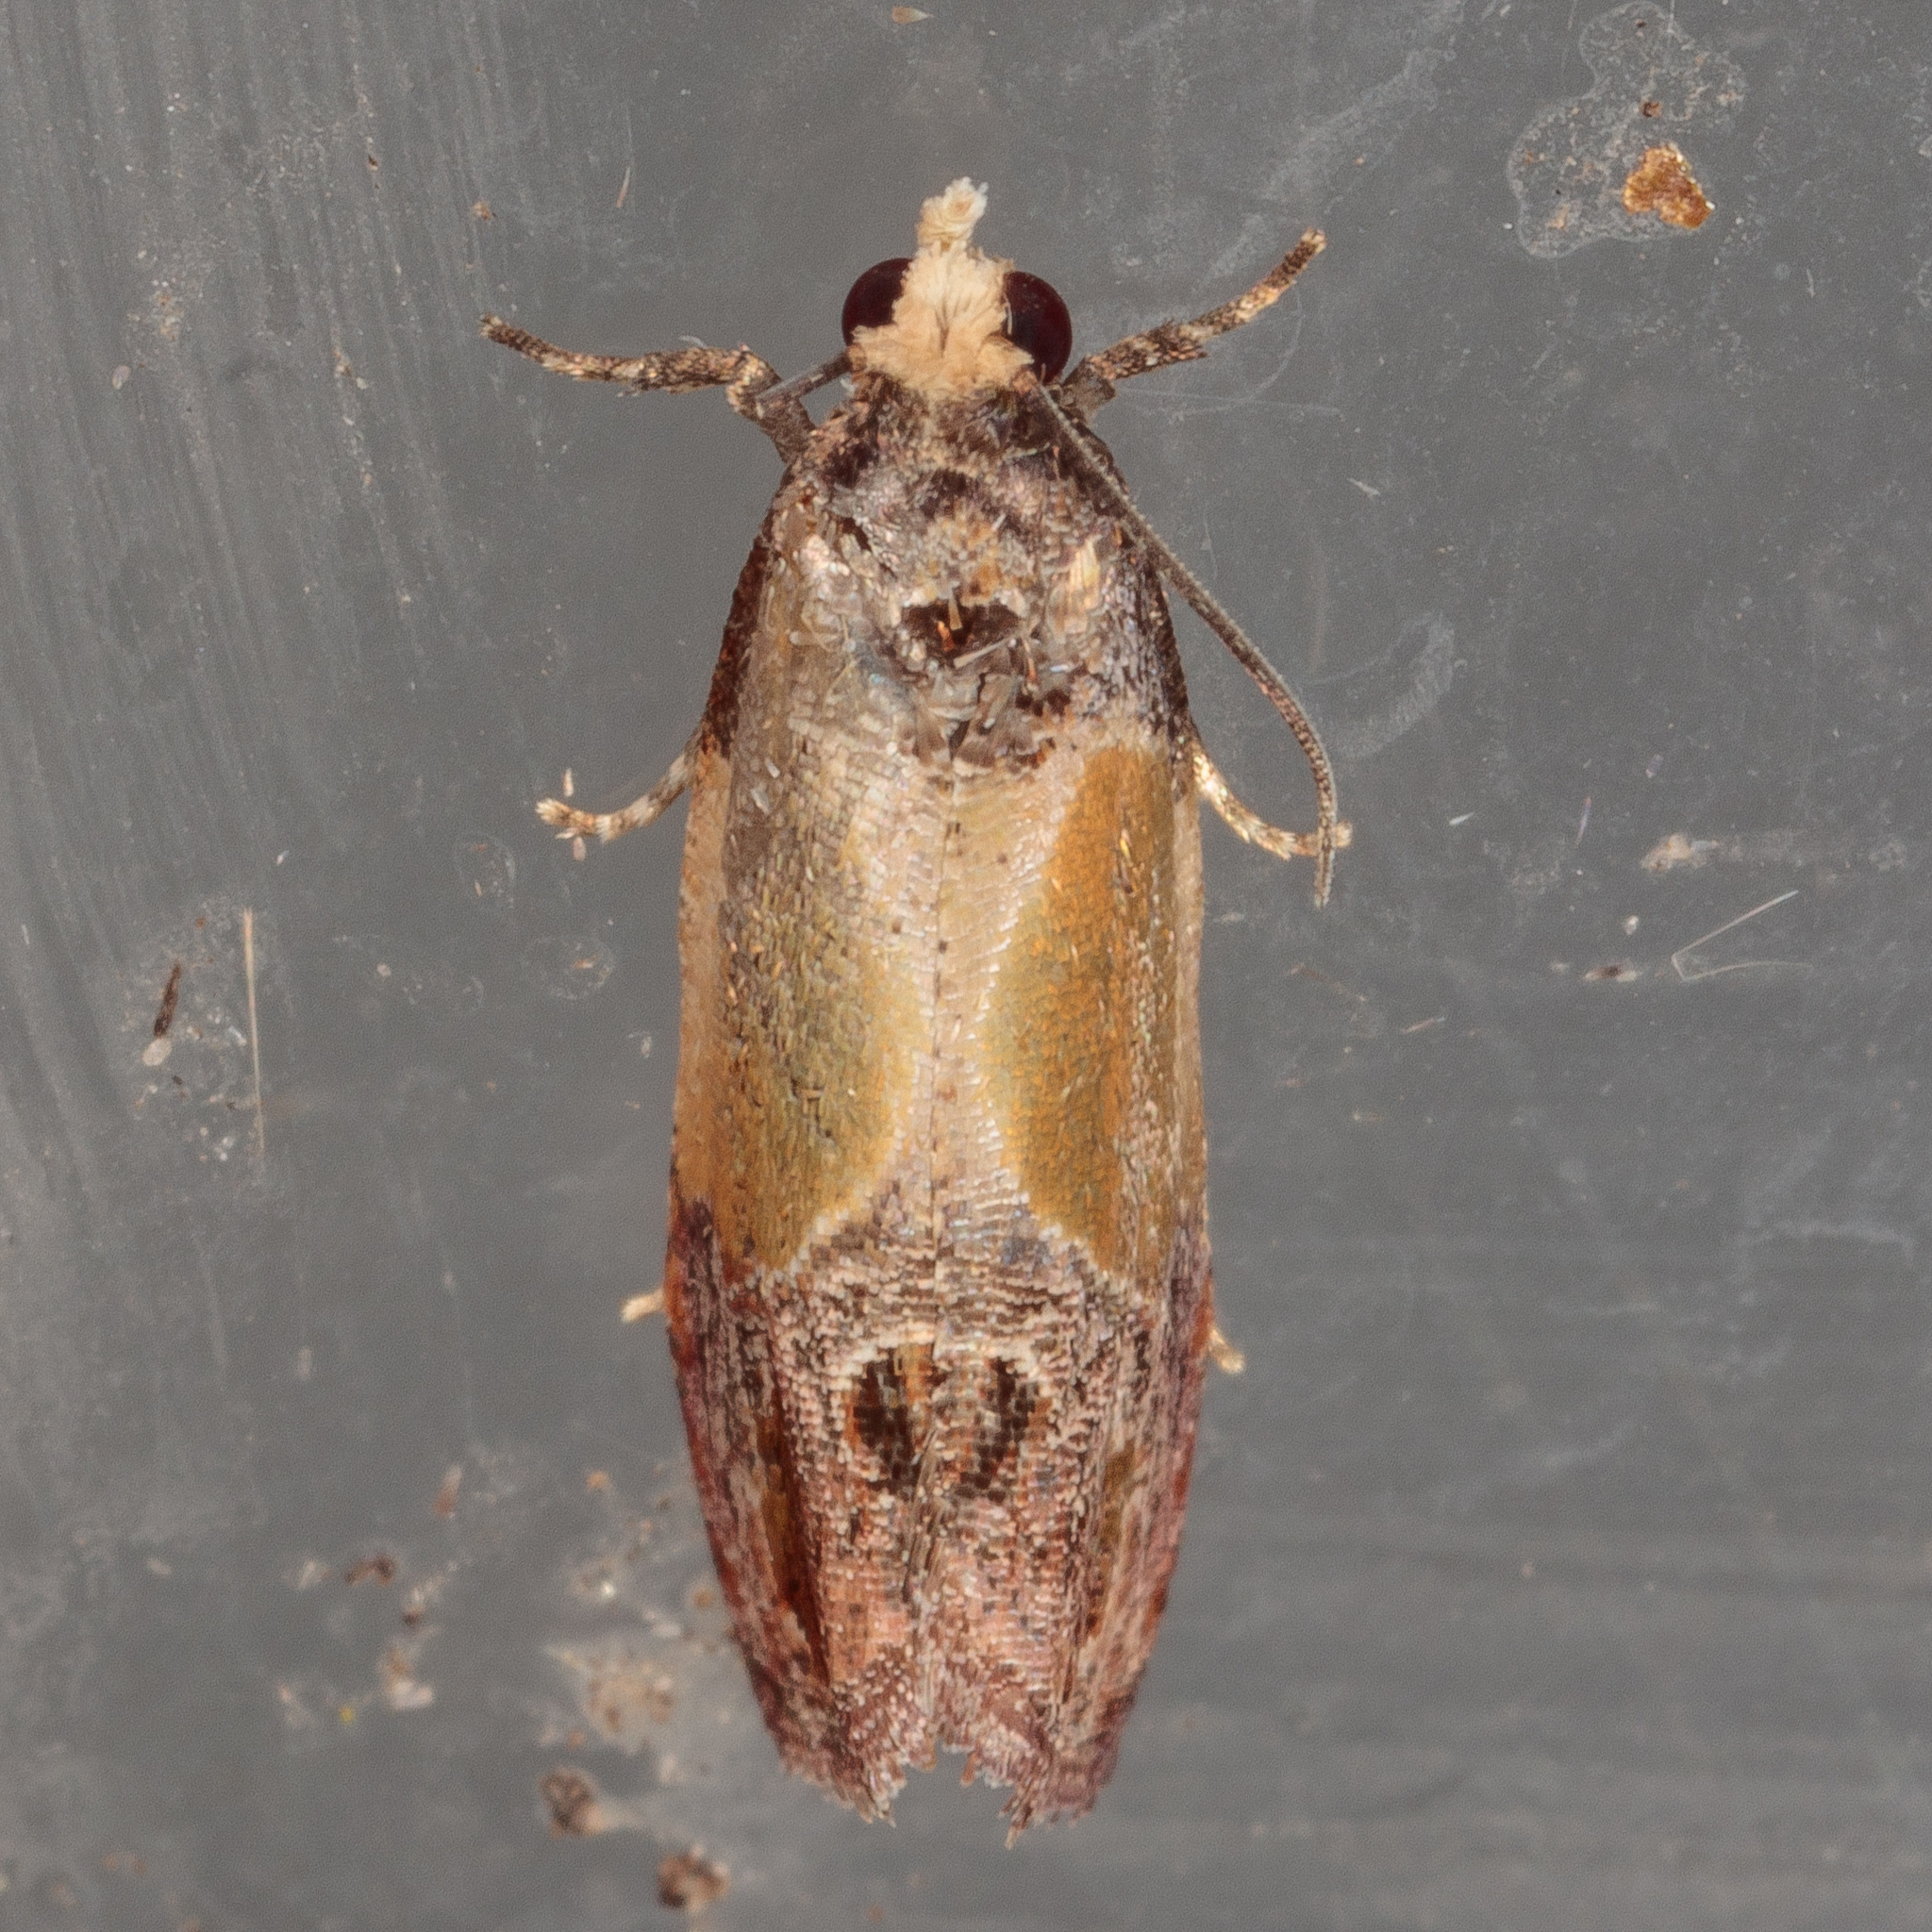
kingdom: Animalia
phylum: Arthropoda
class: Insecta
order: Lepidoptera
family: Tortricidae
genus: Eumarozia
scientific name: Eumarozia malachitana
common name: Sculptured moth
